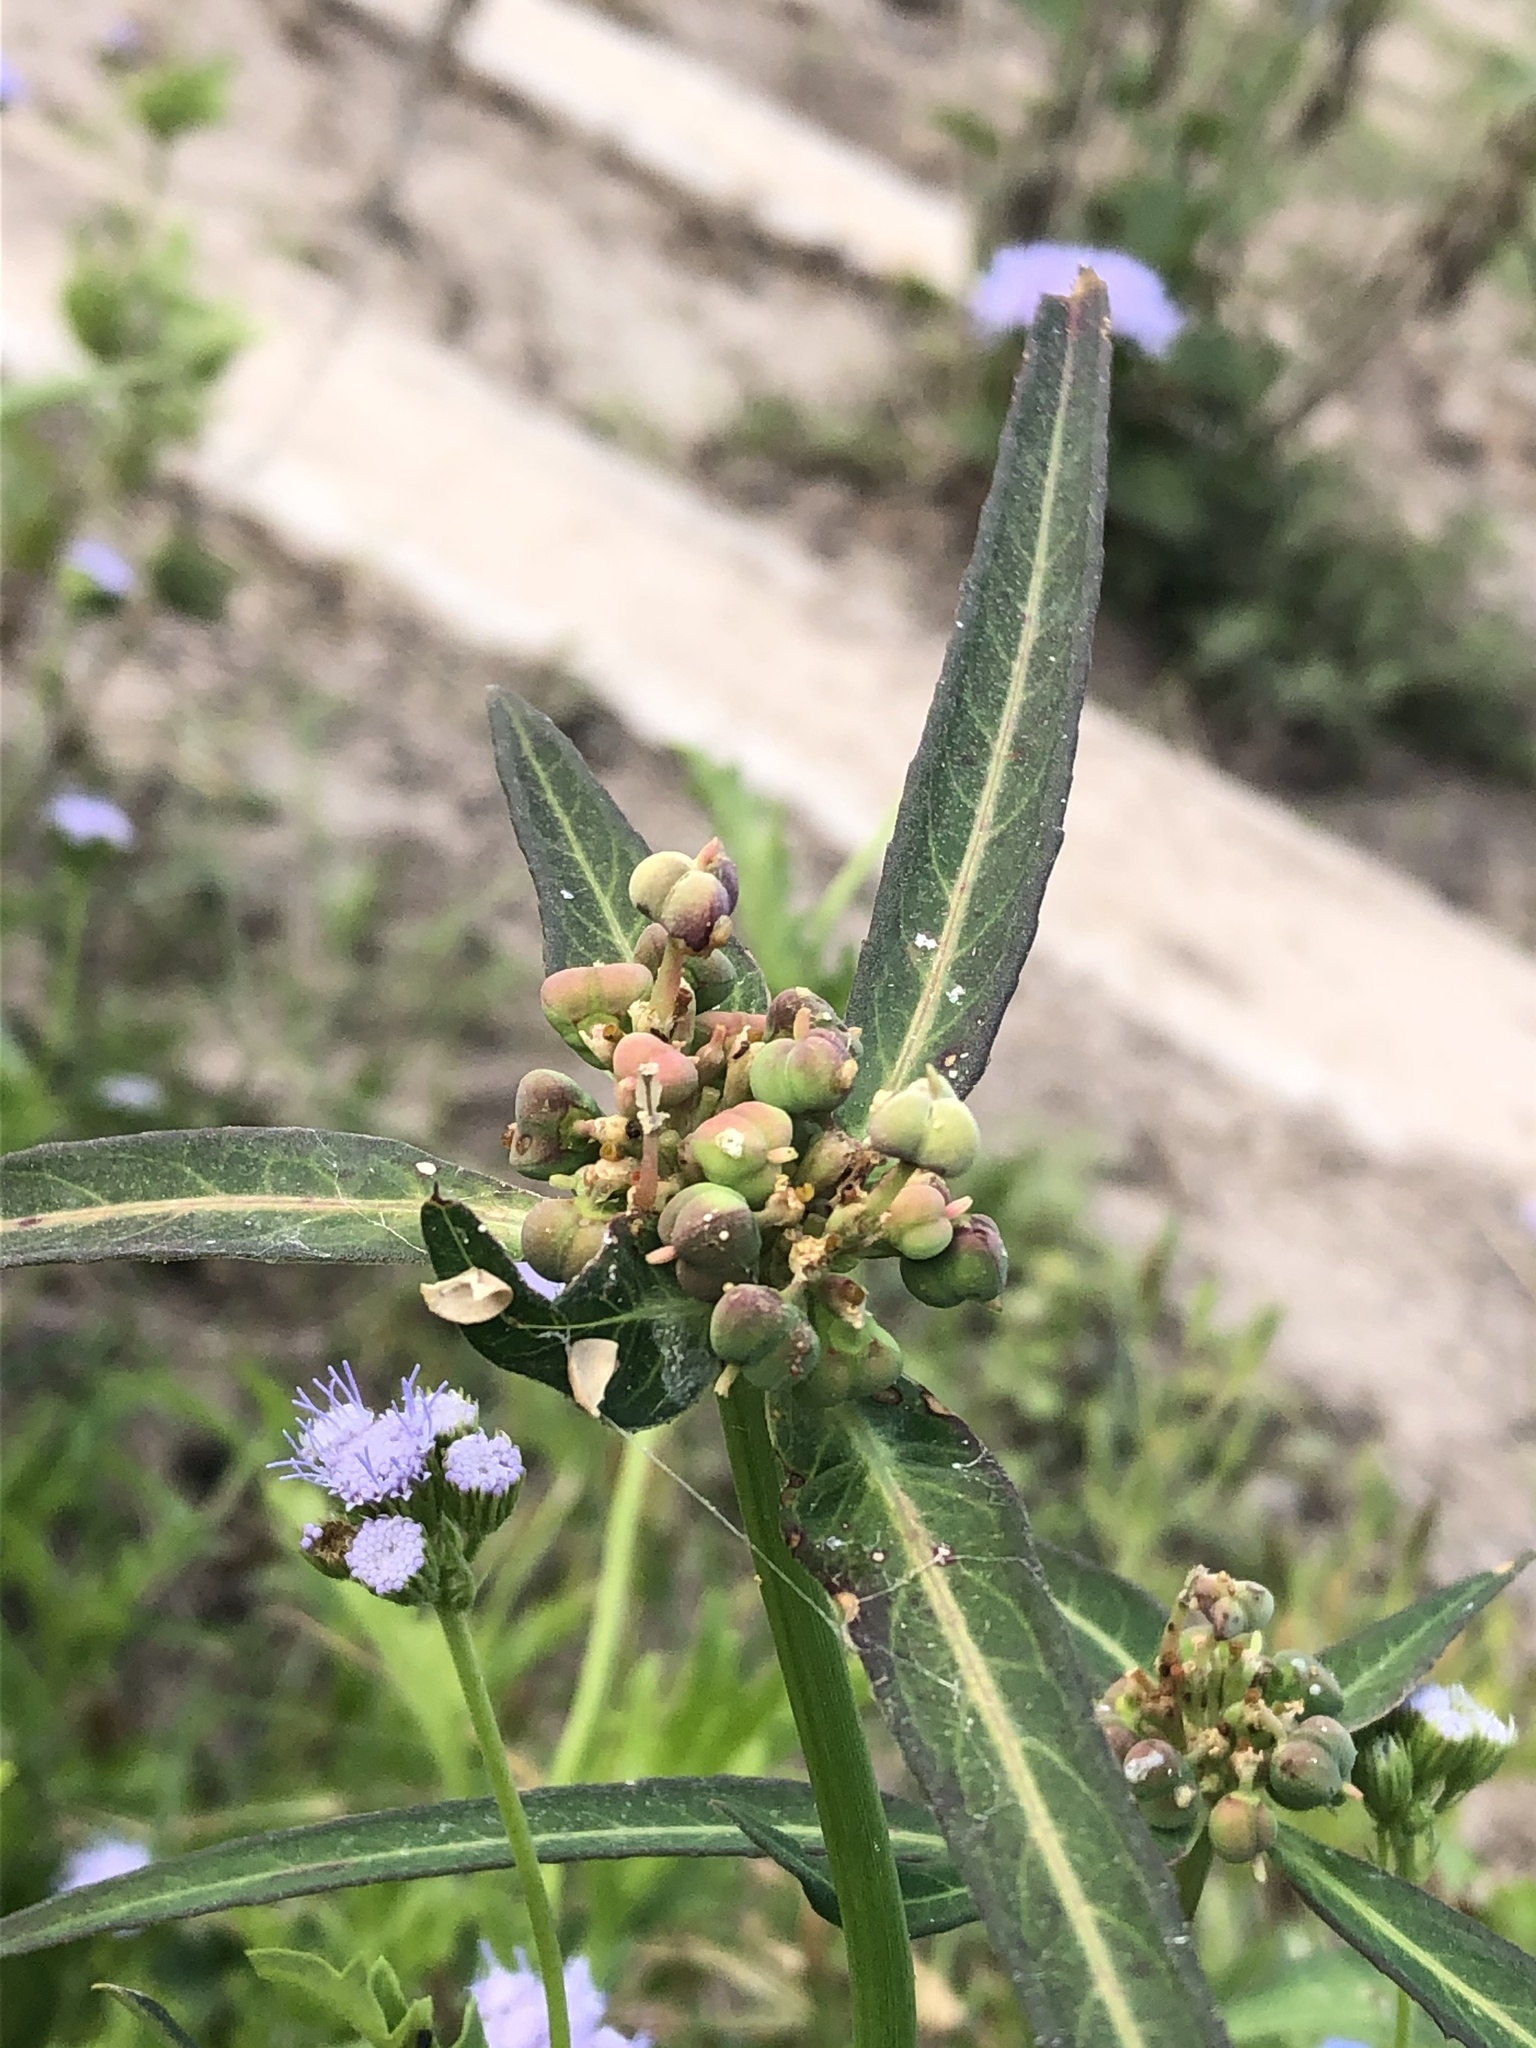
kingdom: Plantae
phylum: Tracheophyta
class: Magnoliopsida
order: Malpighiales
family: Euphorbiaceae
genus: Euphorbia
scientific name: Euphorbia heterophylla
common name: Mexican fireplant
